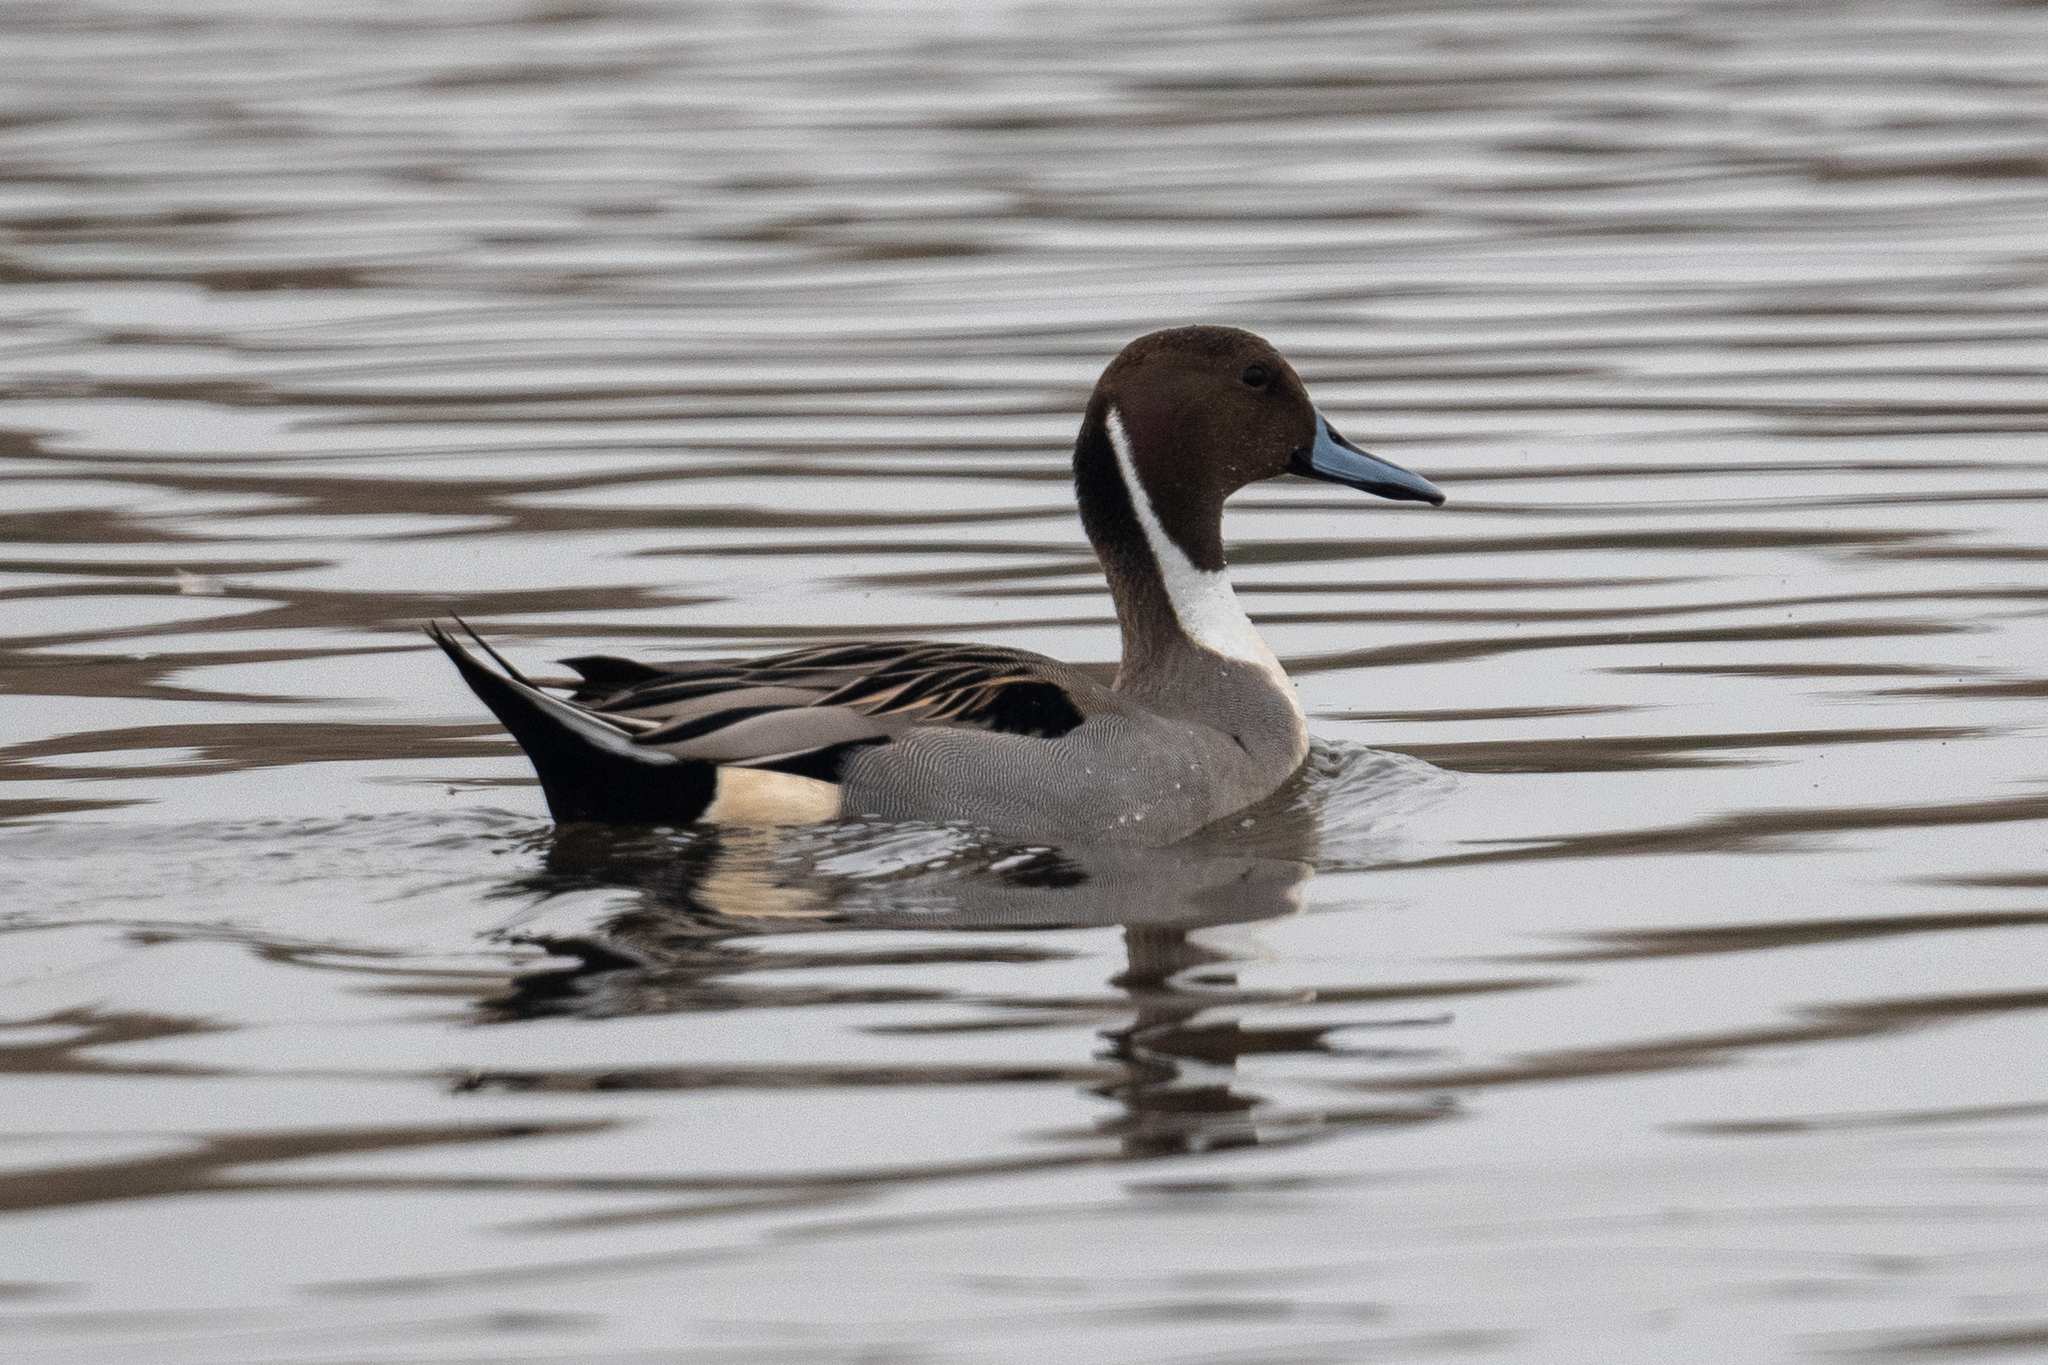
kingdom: Animalia
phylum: Chordata
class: Aves
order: Anseriformes
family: Anatidae
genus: Anas
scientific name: Anas acuta
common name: Northern pintail
